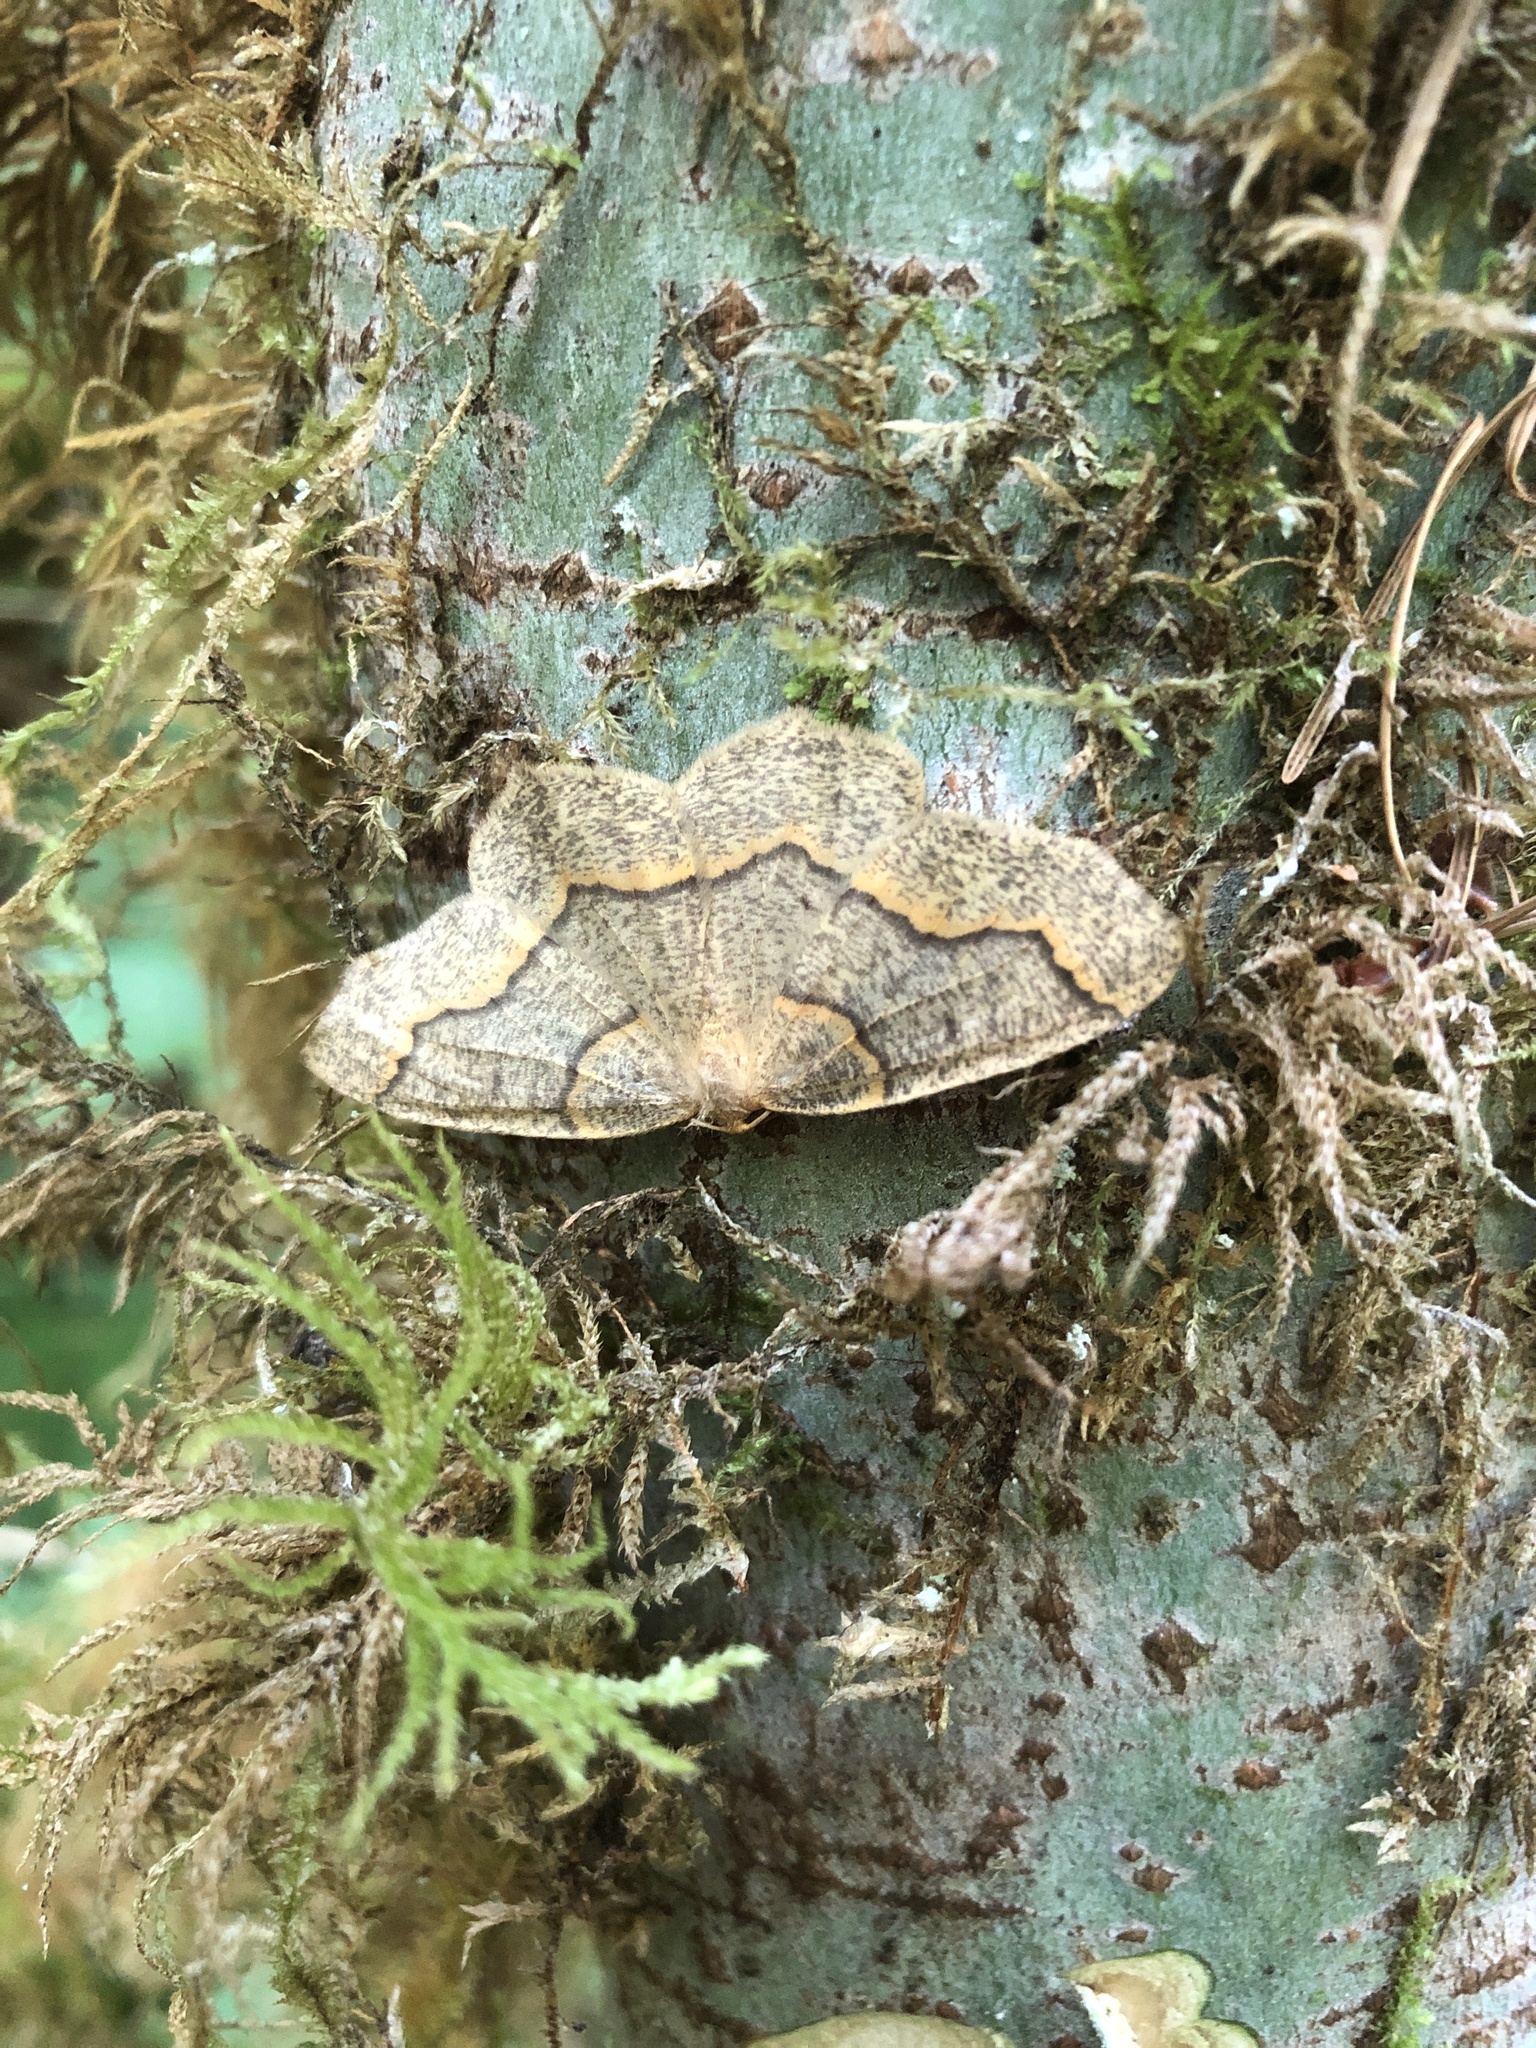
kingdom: Animalia
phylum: Arthropoda
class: Insecta
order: Lepidoptera
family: Geometridae
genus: Lambdina
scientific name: Lambdina fiscellaria
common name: Hemlock looper
